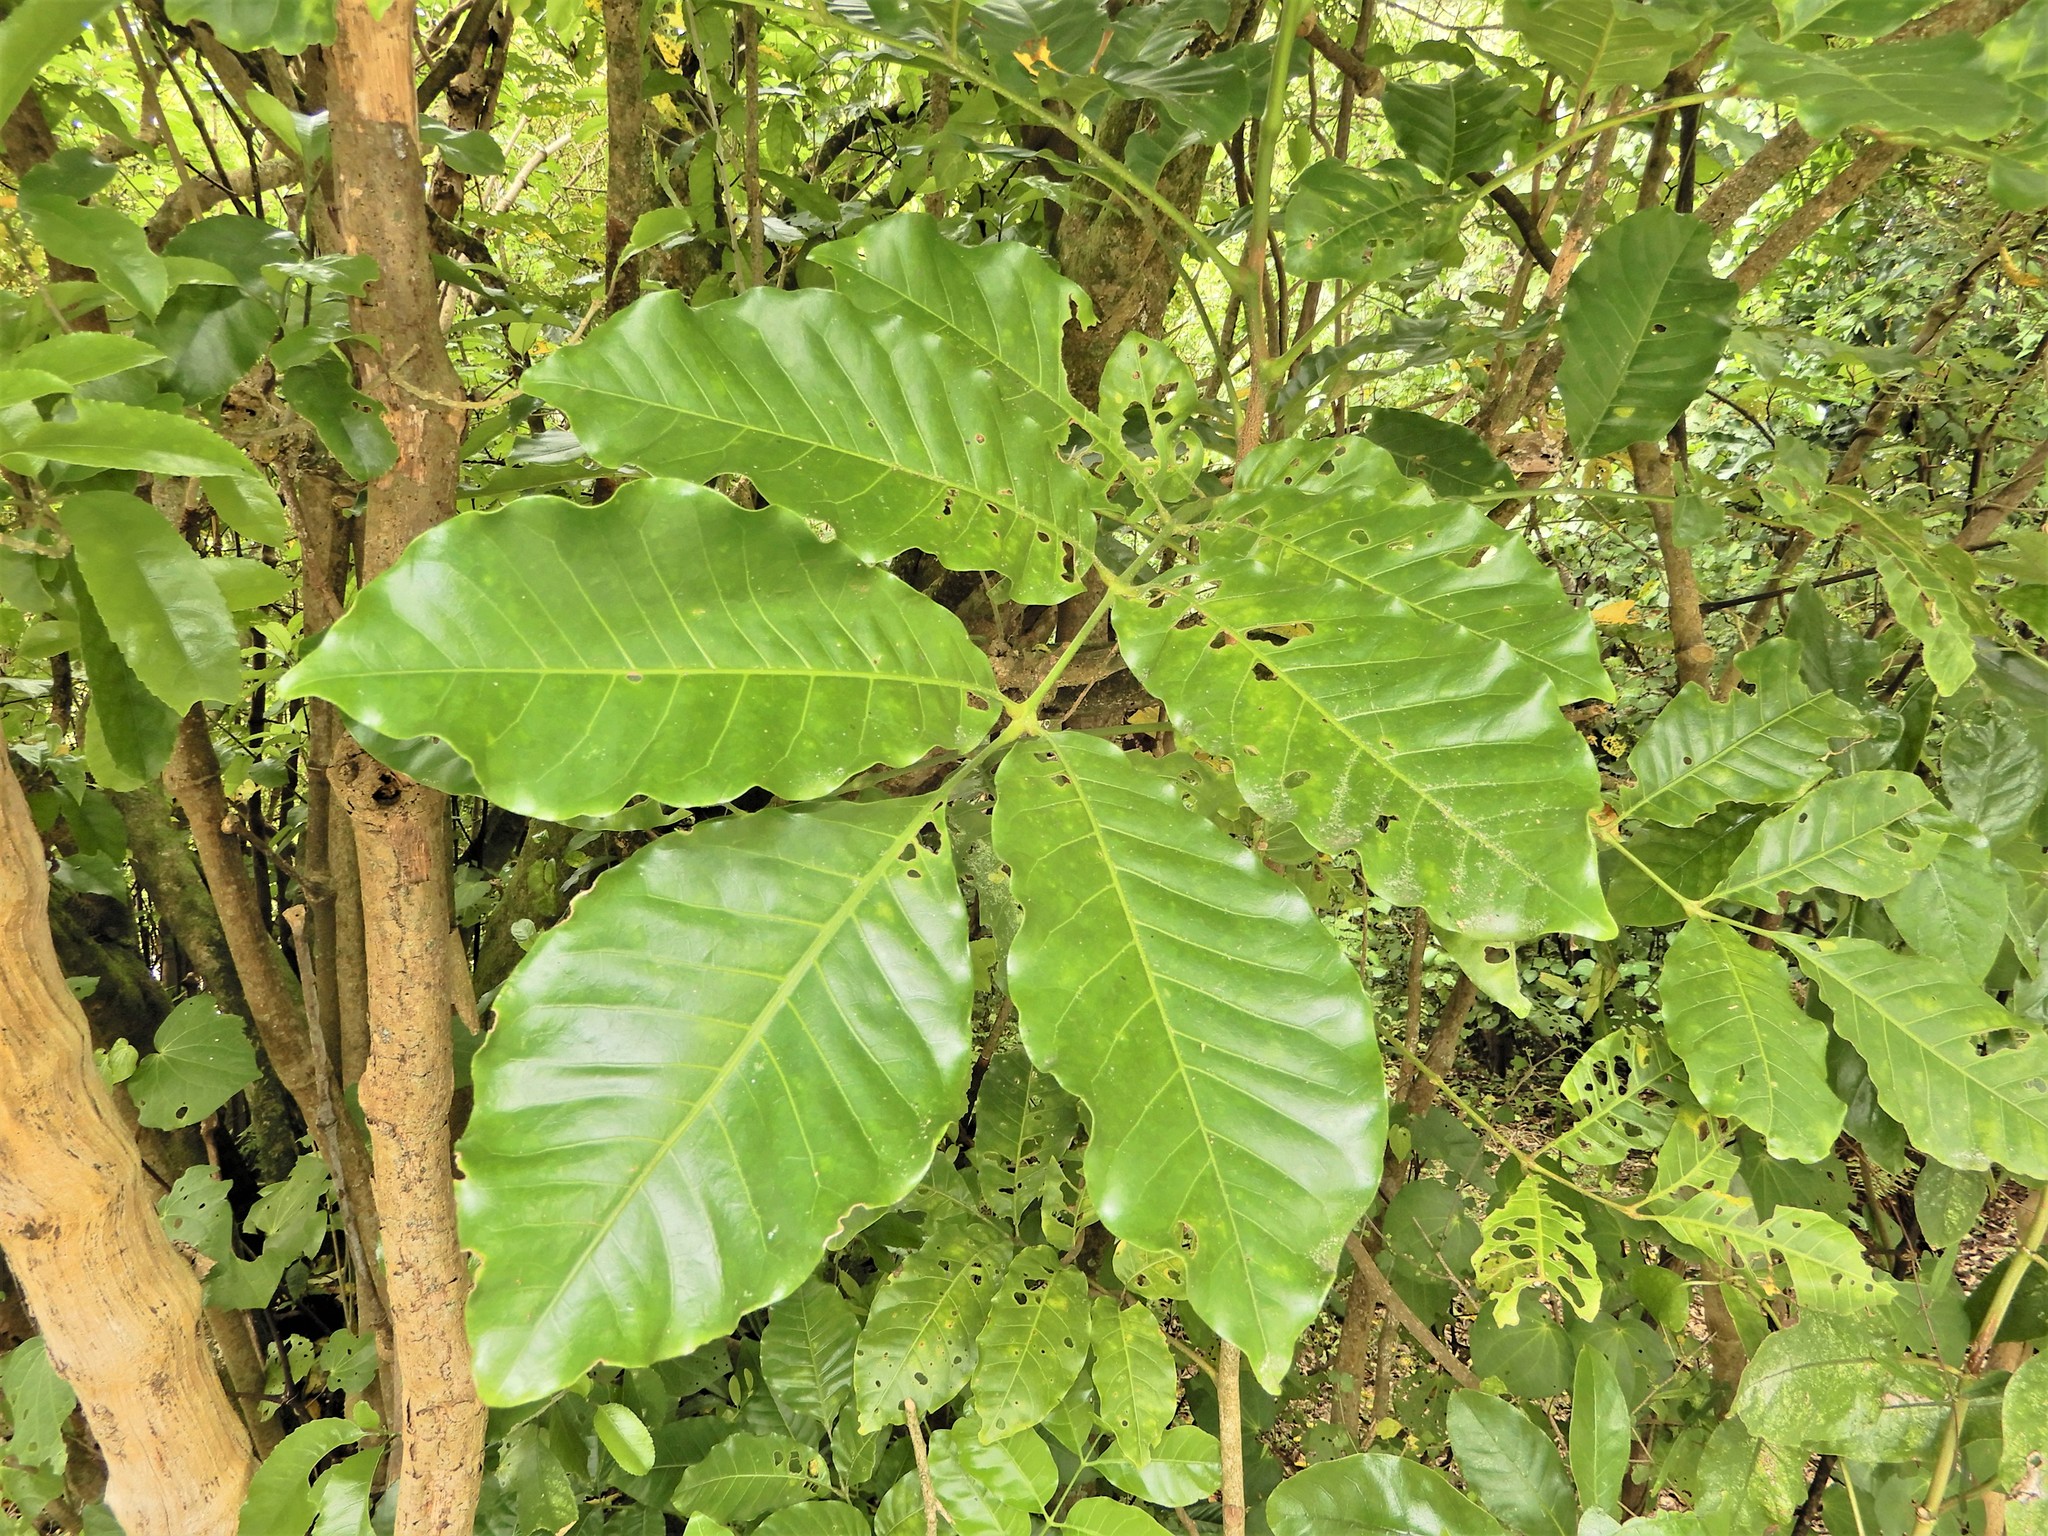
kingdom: Plantae
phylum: Tracheophyta
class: Magnoliopsida
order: Sapindales
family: Meliaceae
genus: Didymocheton
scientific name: Didymocheton spectabilis
